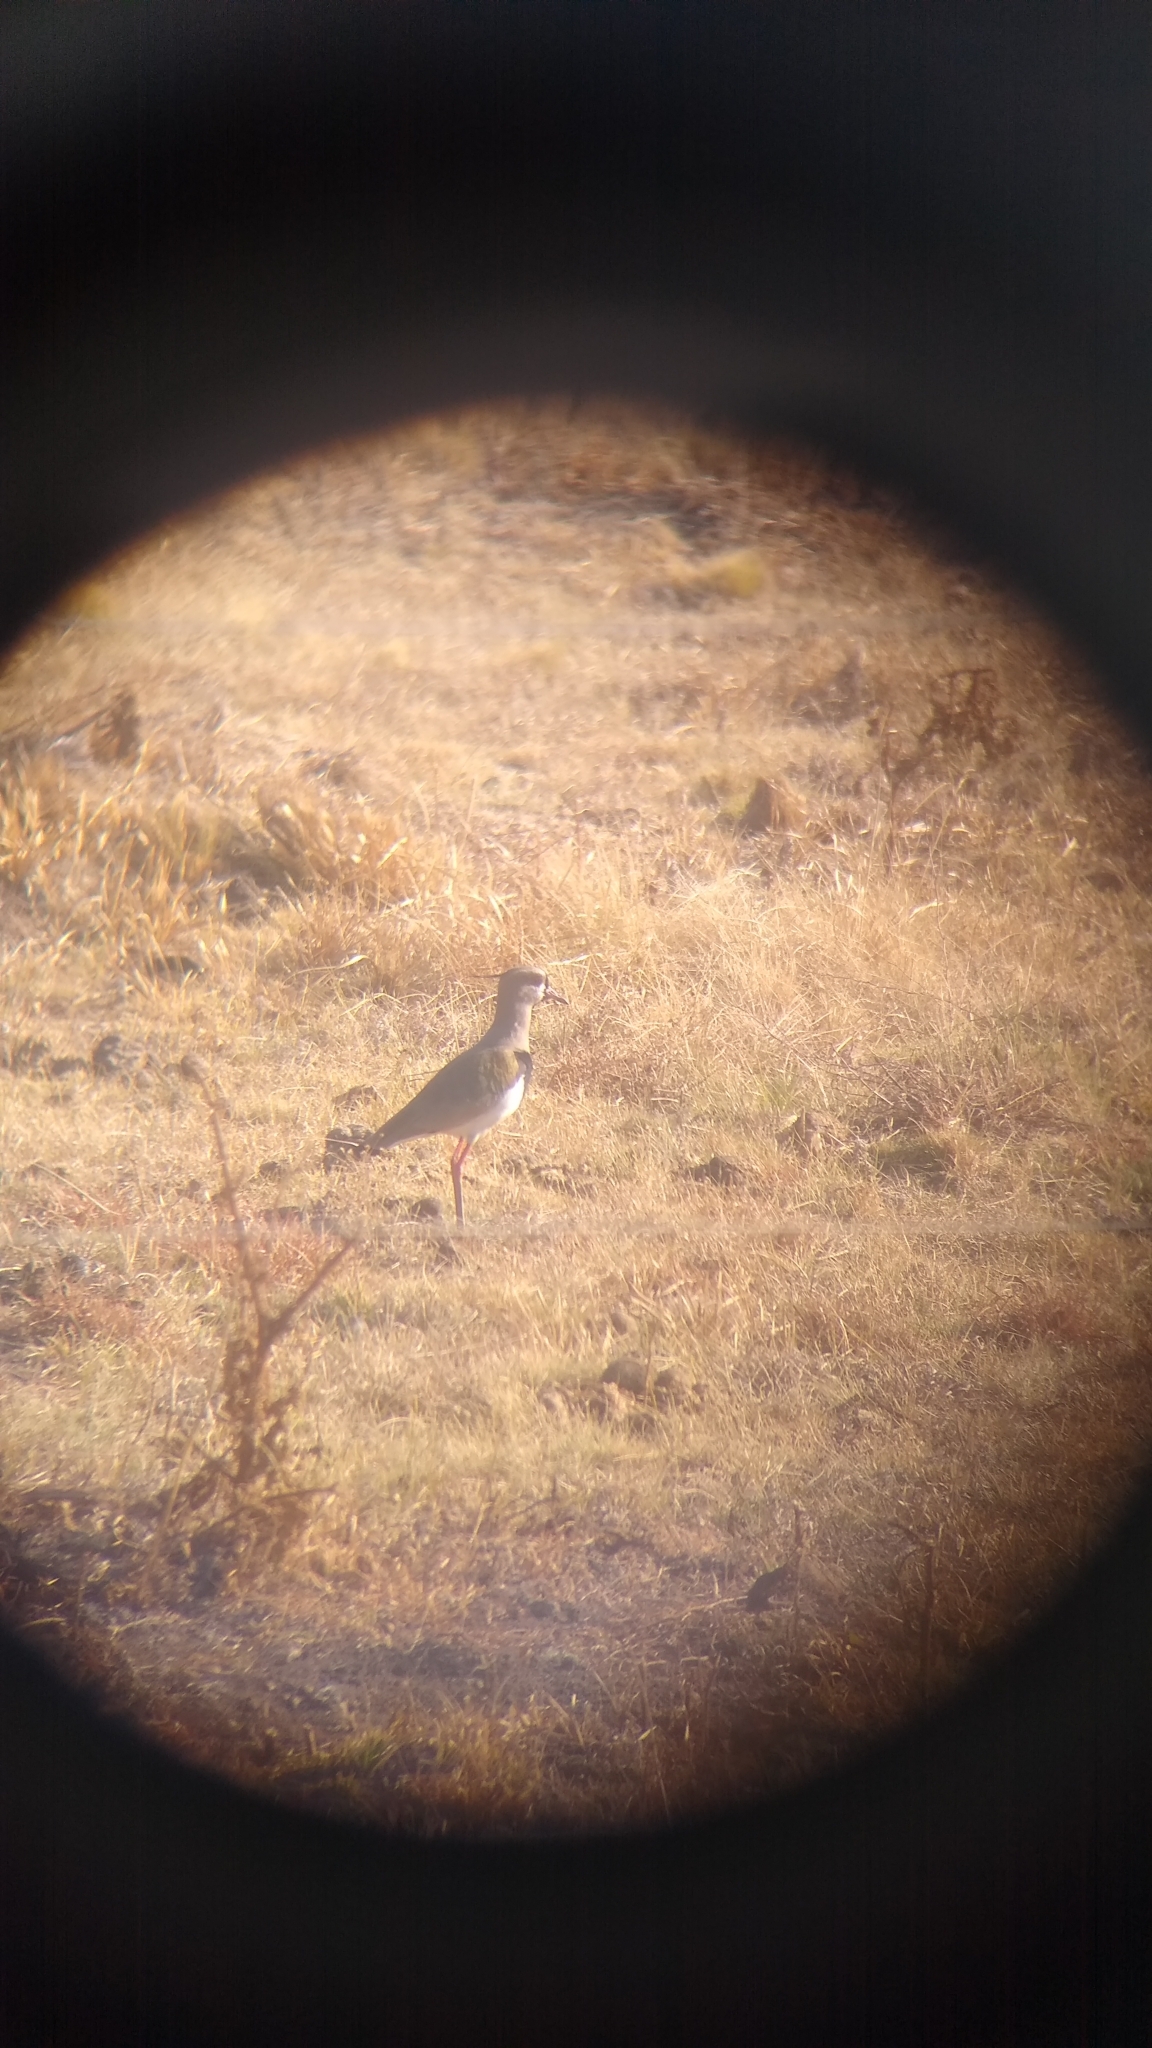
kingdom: Animalia
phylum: Chordata
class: Aves
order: Charadriiformes
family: Charadriidae
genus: Vanellus
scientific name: Vanellus chilensis
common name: Southern lapwing
